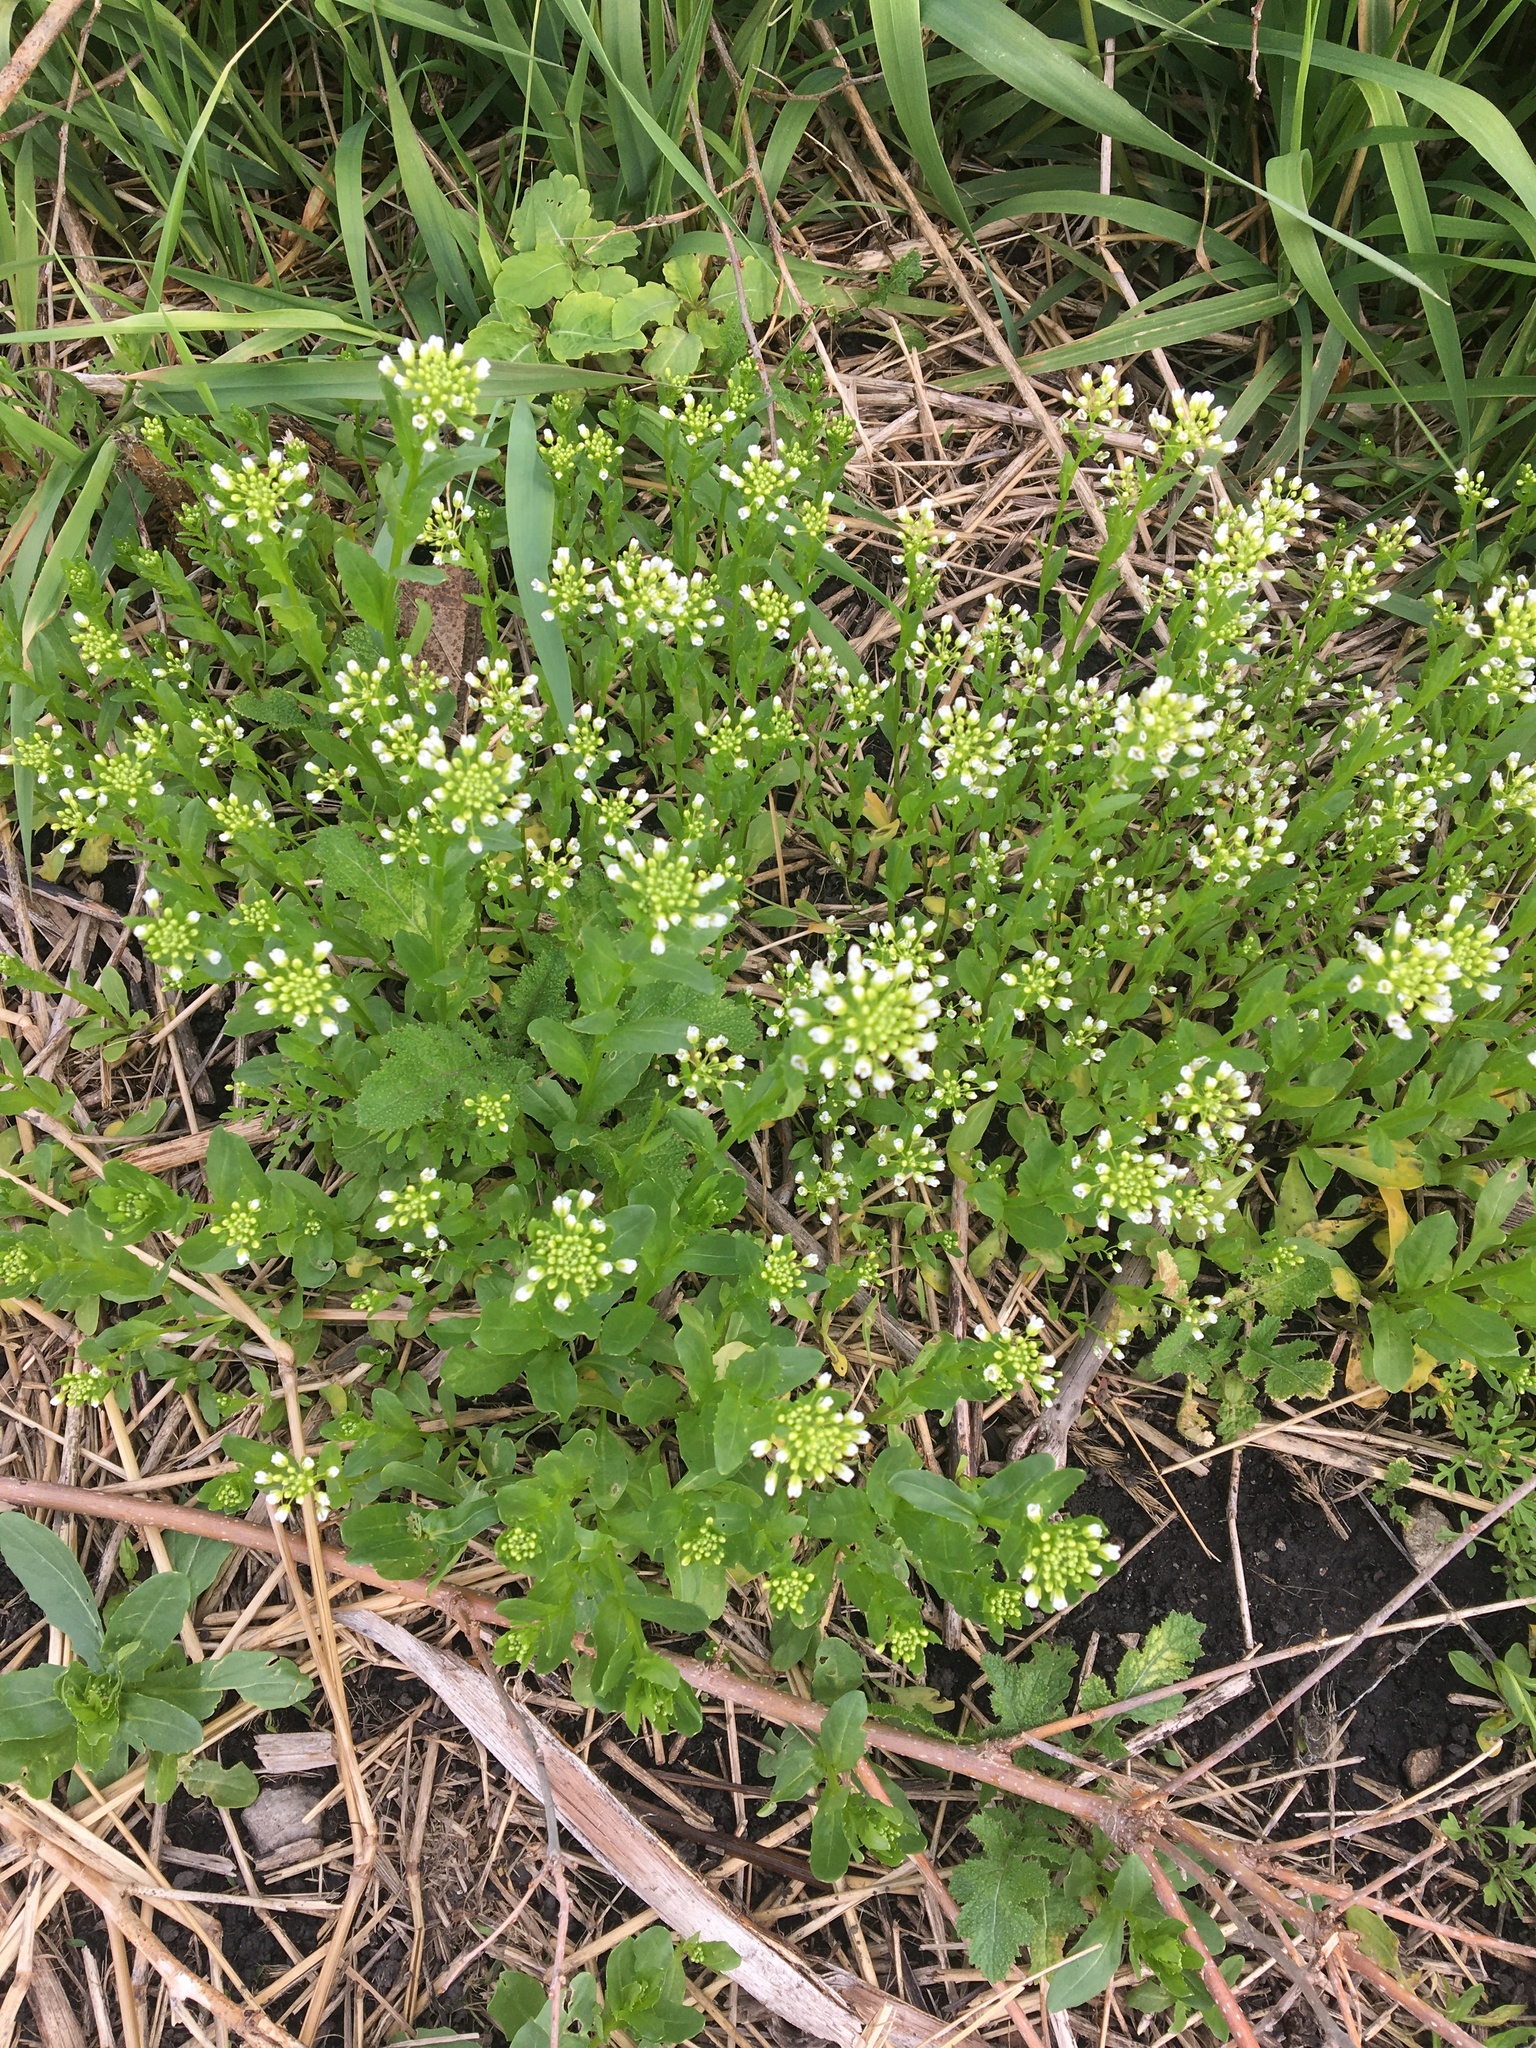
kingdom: Plantae
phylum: Tracheophyta
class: Magnoliopsida
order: Brassicales
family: Brassicaceae
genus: Thlaspi
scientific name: Thlaspi arvense
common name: Field pennycress
